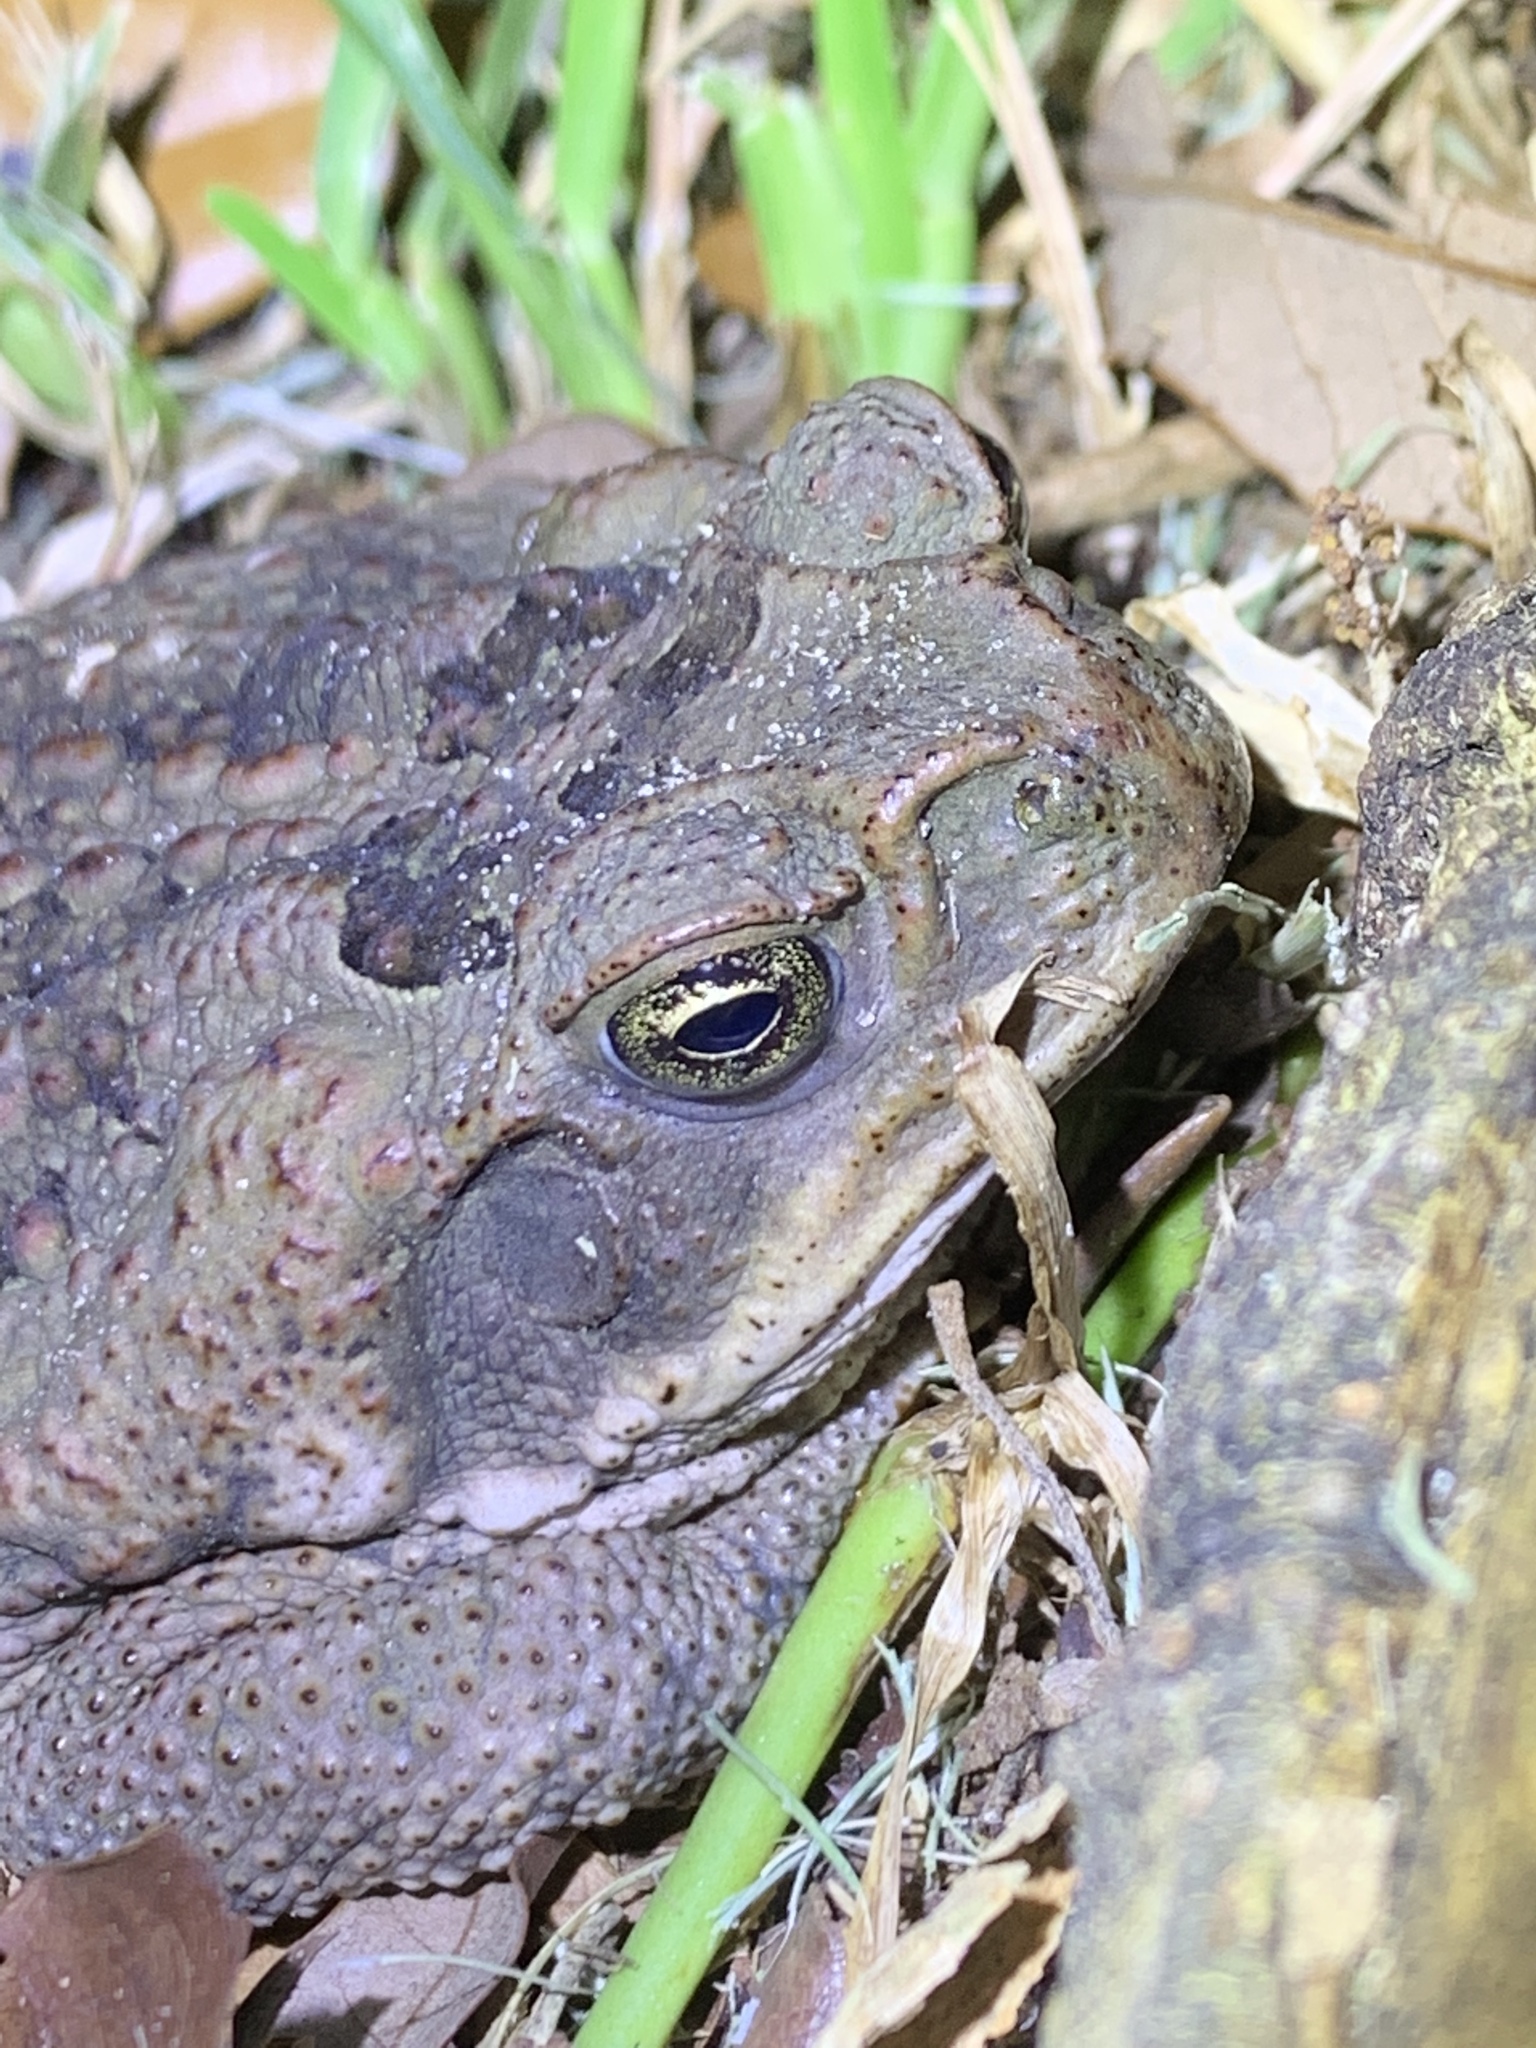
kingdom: Animalia
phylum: Chordata
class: Amphibia
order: Anura
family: Bufonidae
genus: Rhinella
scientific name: Rhinella marina
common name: Cane toad
